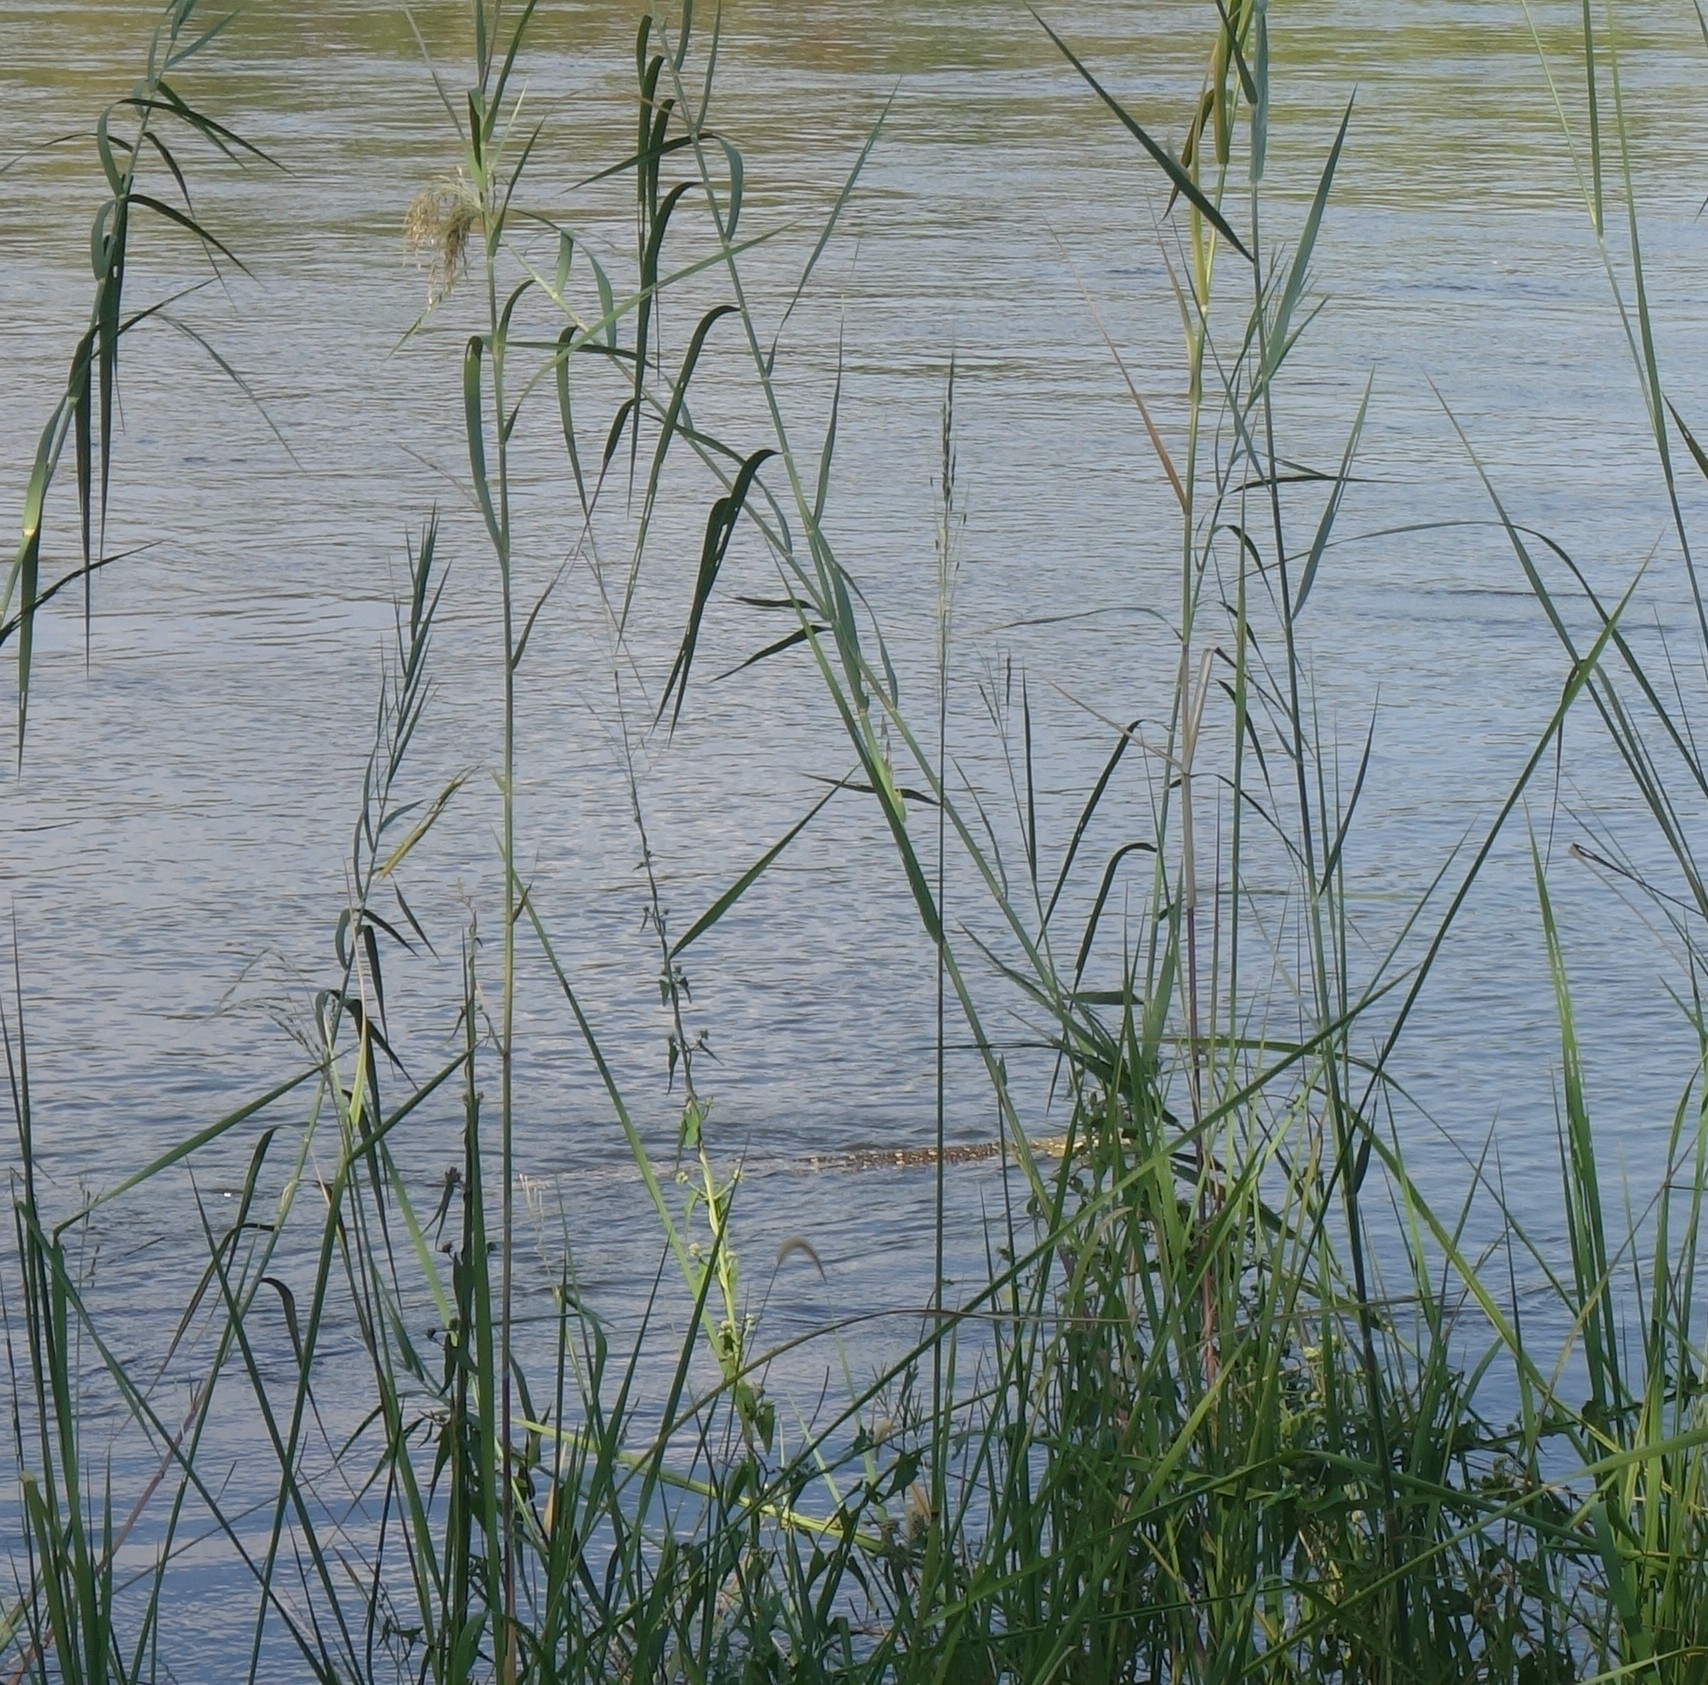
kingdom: Animalia
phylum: Chordata
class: Squamata
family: Varanidae
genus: Varanus
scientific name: Varanus niloticus
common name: Nile monitor
